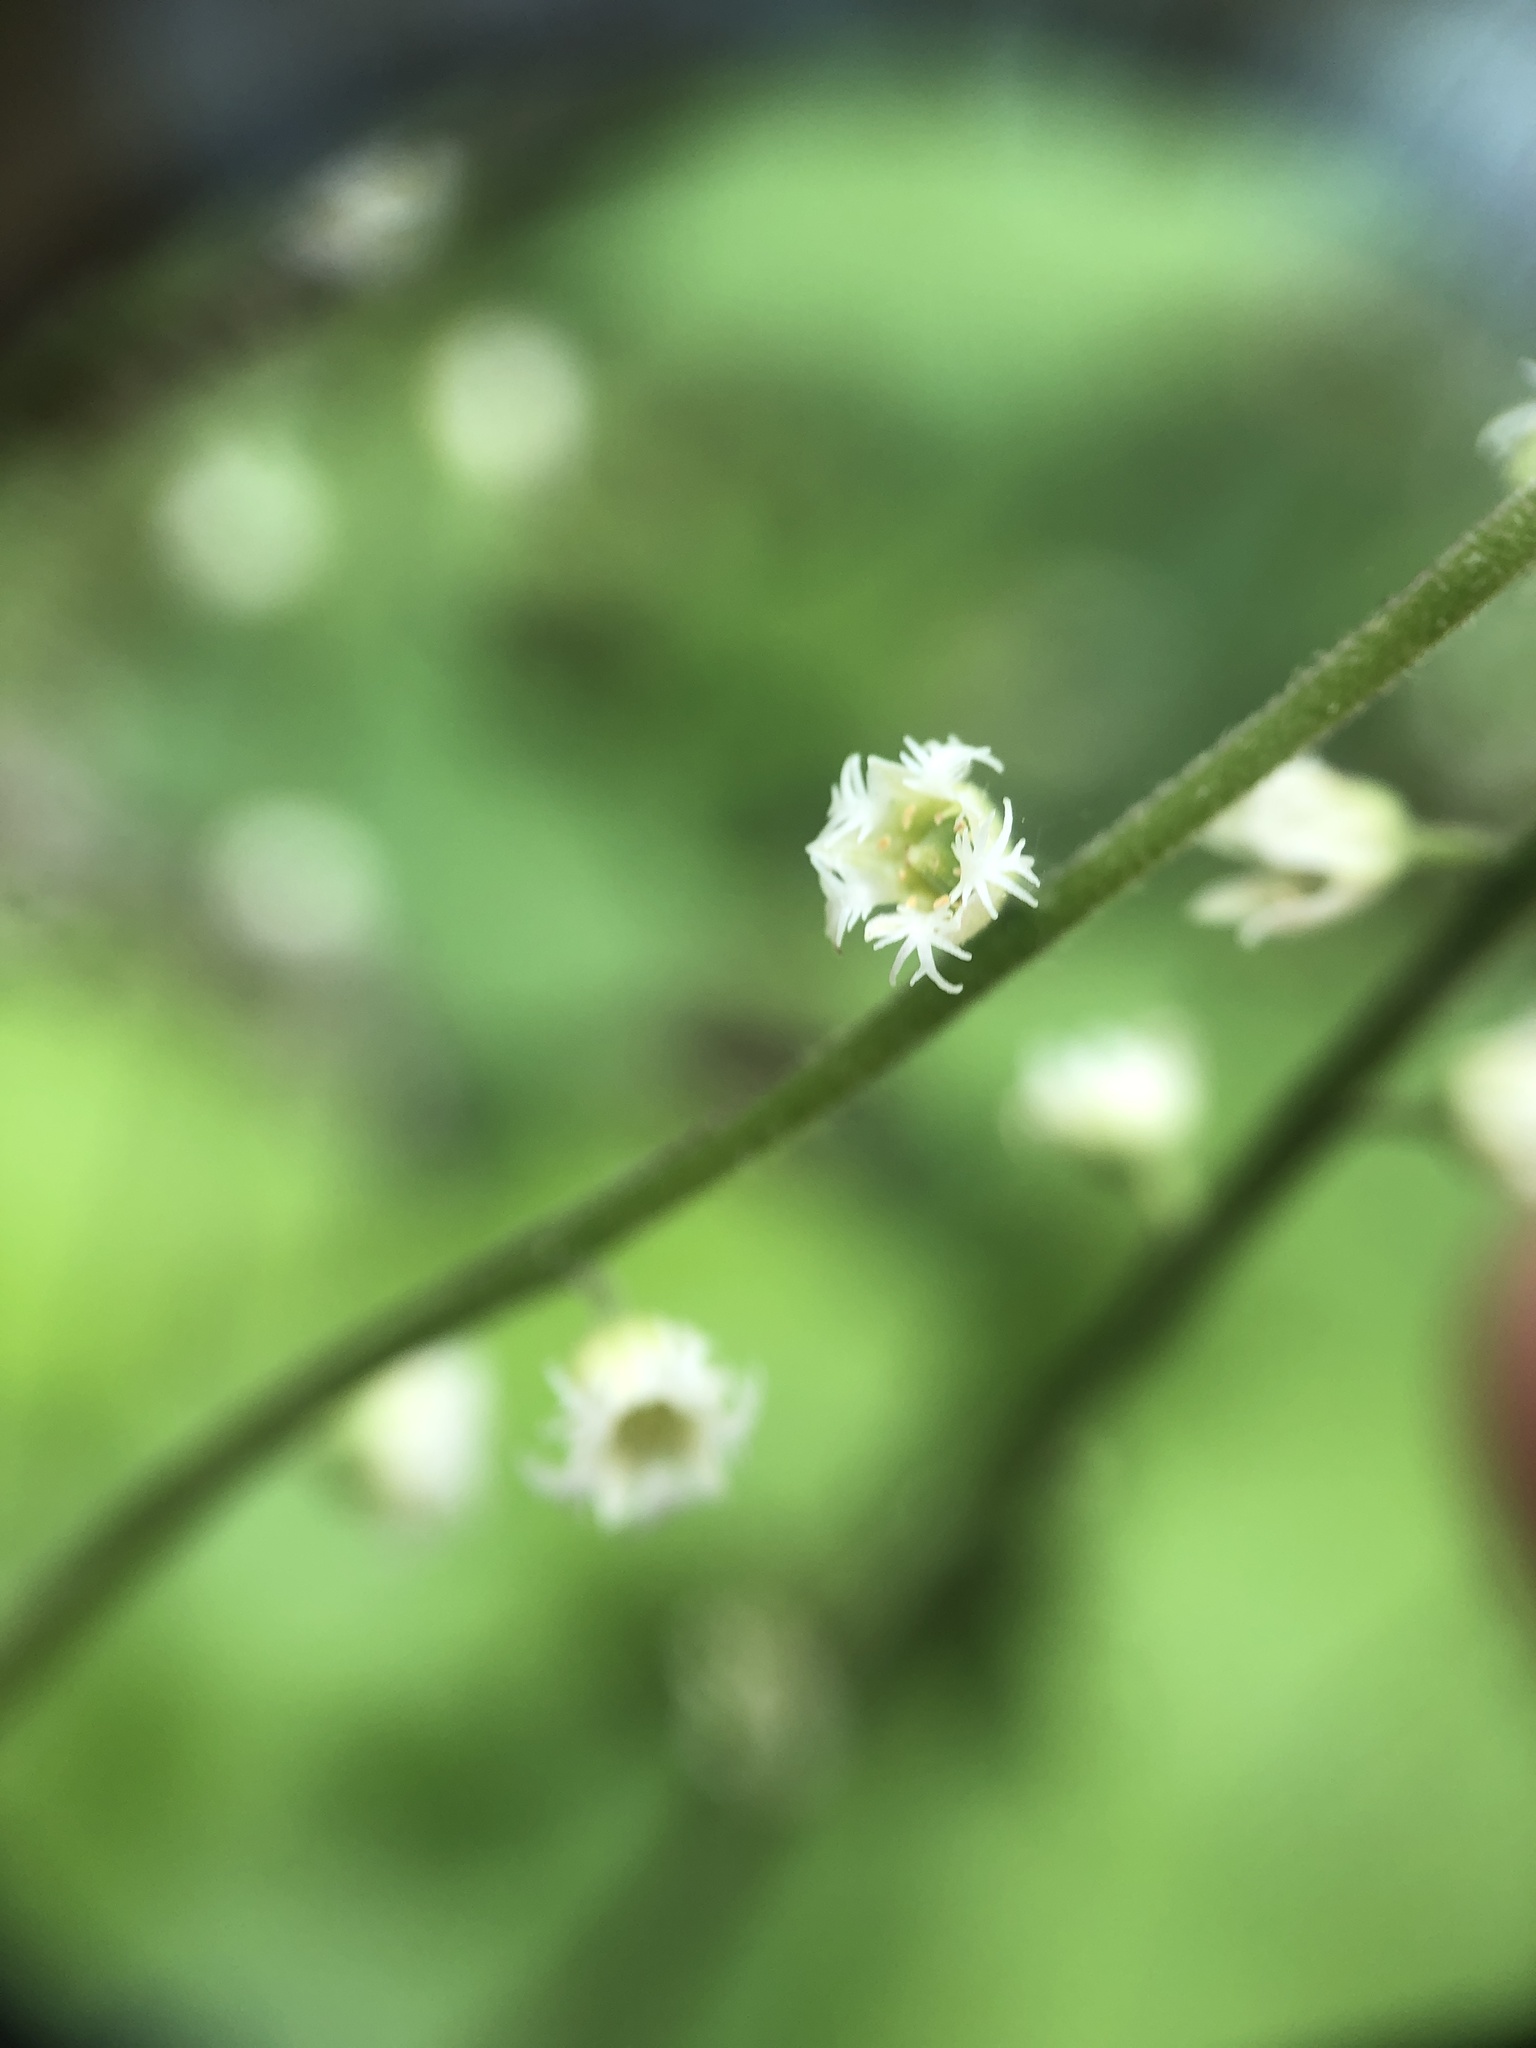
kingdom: Plantae
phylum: Tracheophyta
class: Magnoliopsida
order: Saxifragales
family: Saxifragaceae
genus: Mitella
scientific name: Mitella diphylla
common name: Coolwort
